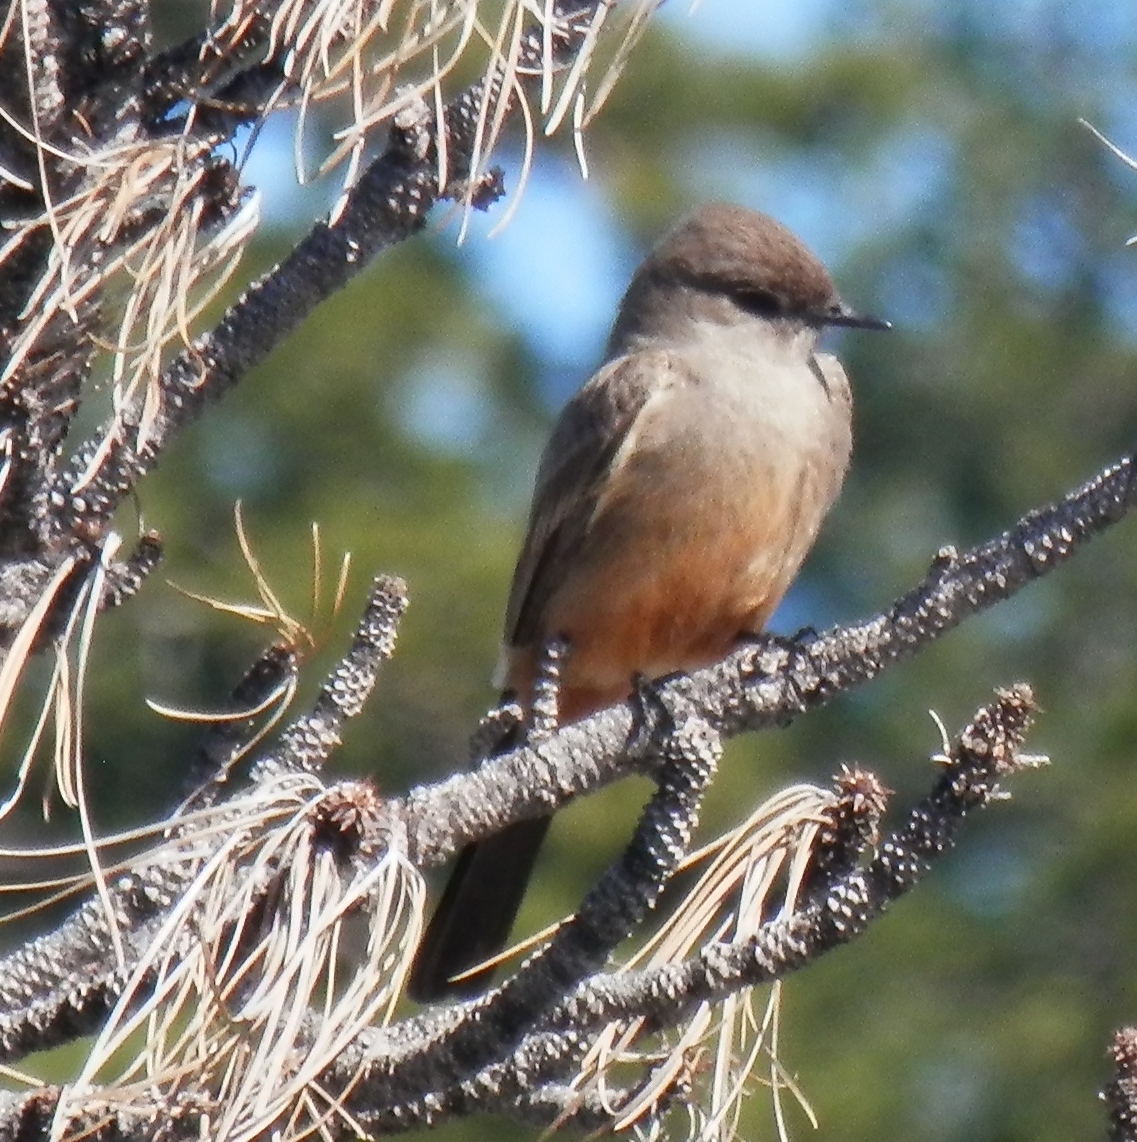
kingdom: Animalia
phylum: Chordata
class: Aves
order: Passeriformes
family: Tyrannidae
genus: Sayornis
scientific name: Sayornis saya
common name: Say's phoebe
